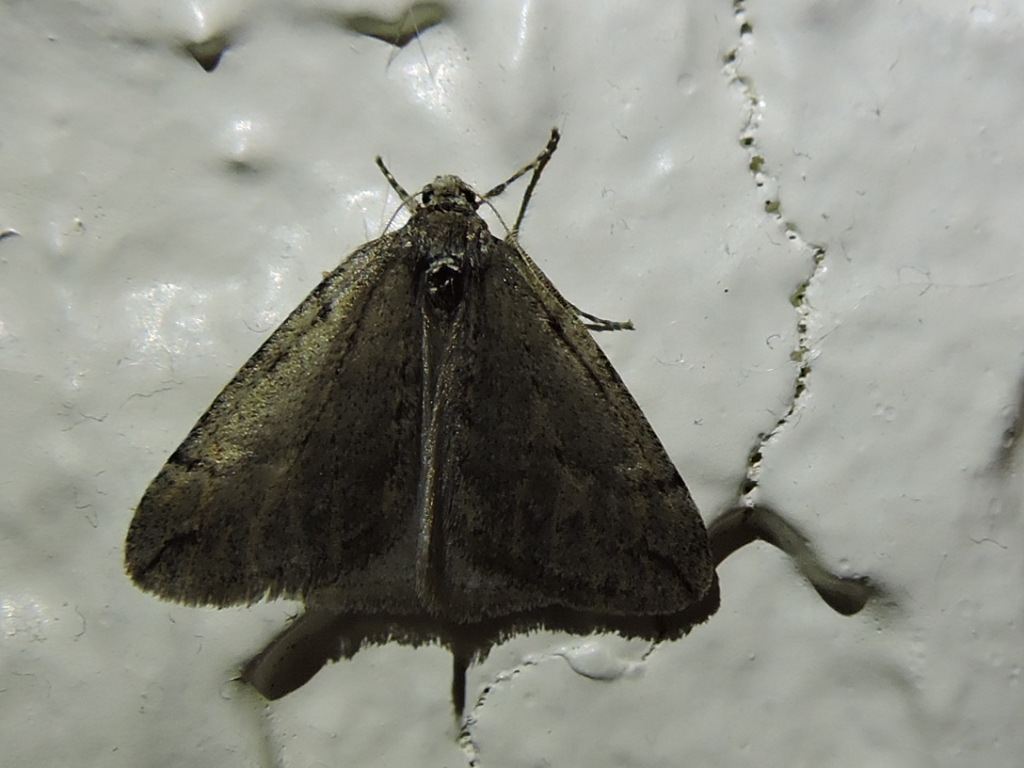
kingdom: Animalia
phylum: Arthropoda
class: Insecta
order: Lepidoptera
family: Geometridae
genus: Paleacrita
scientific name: Paleacrita vernata
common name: Spring cankerworm
